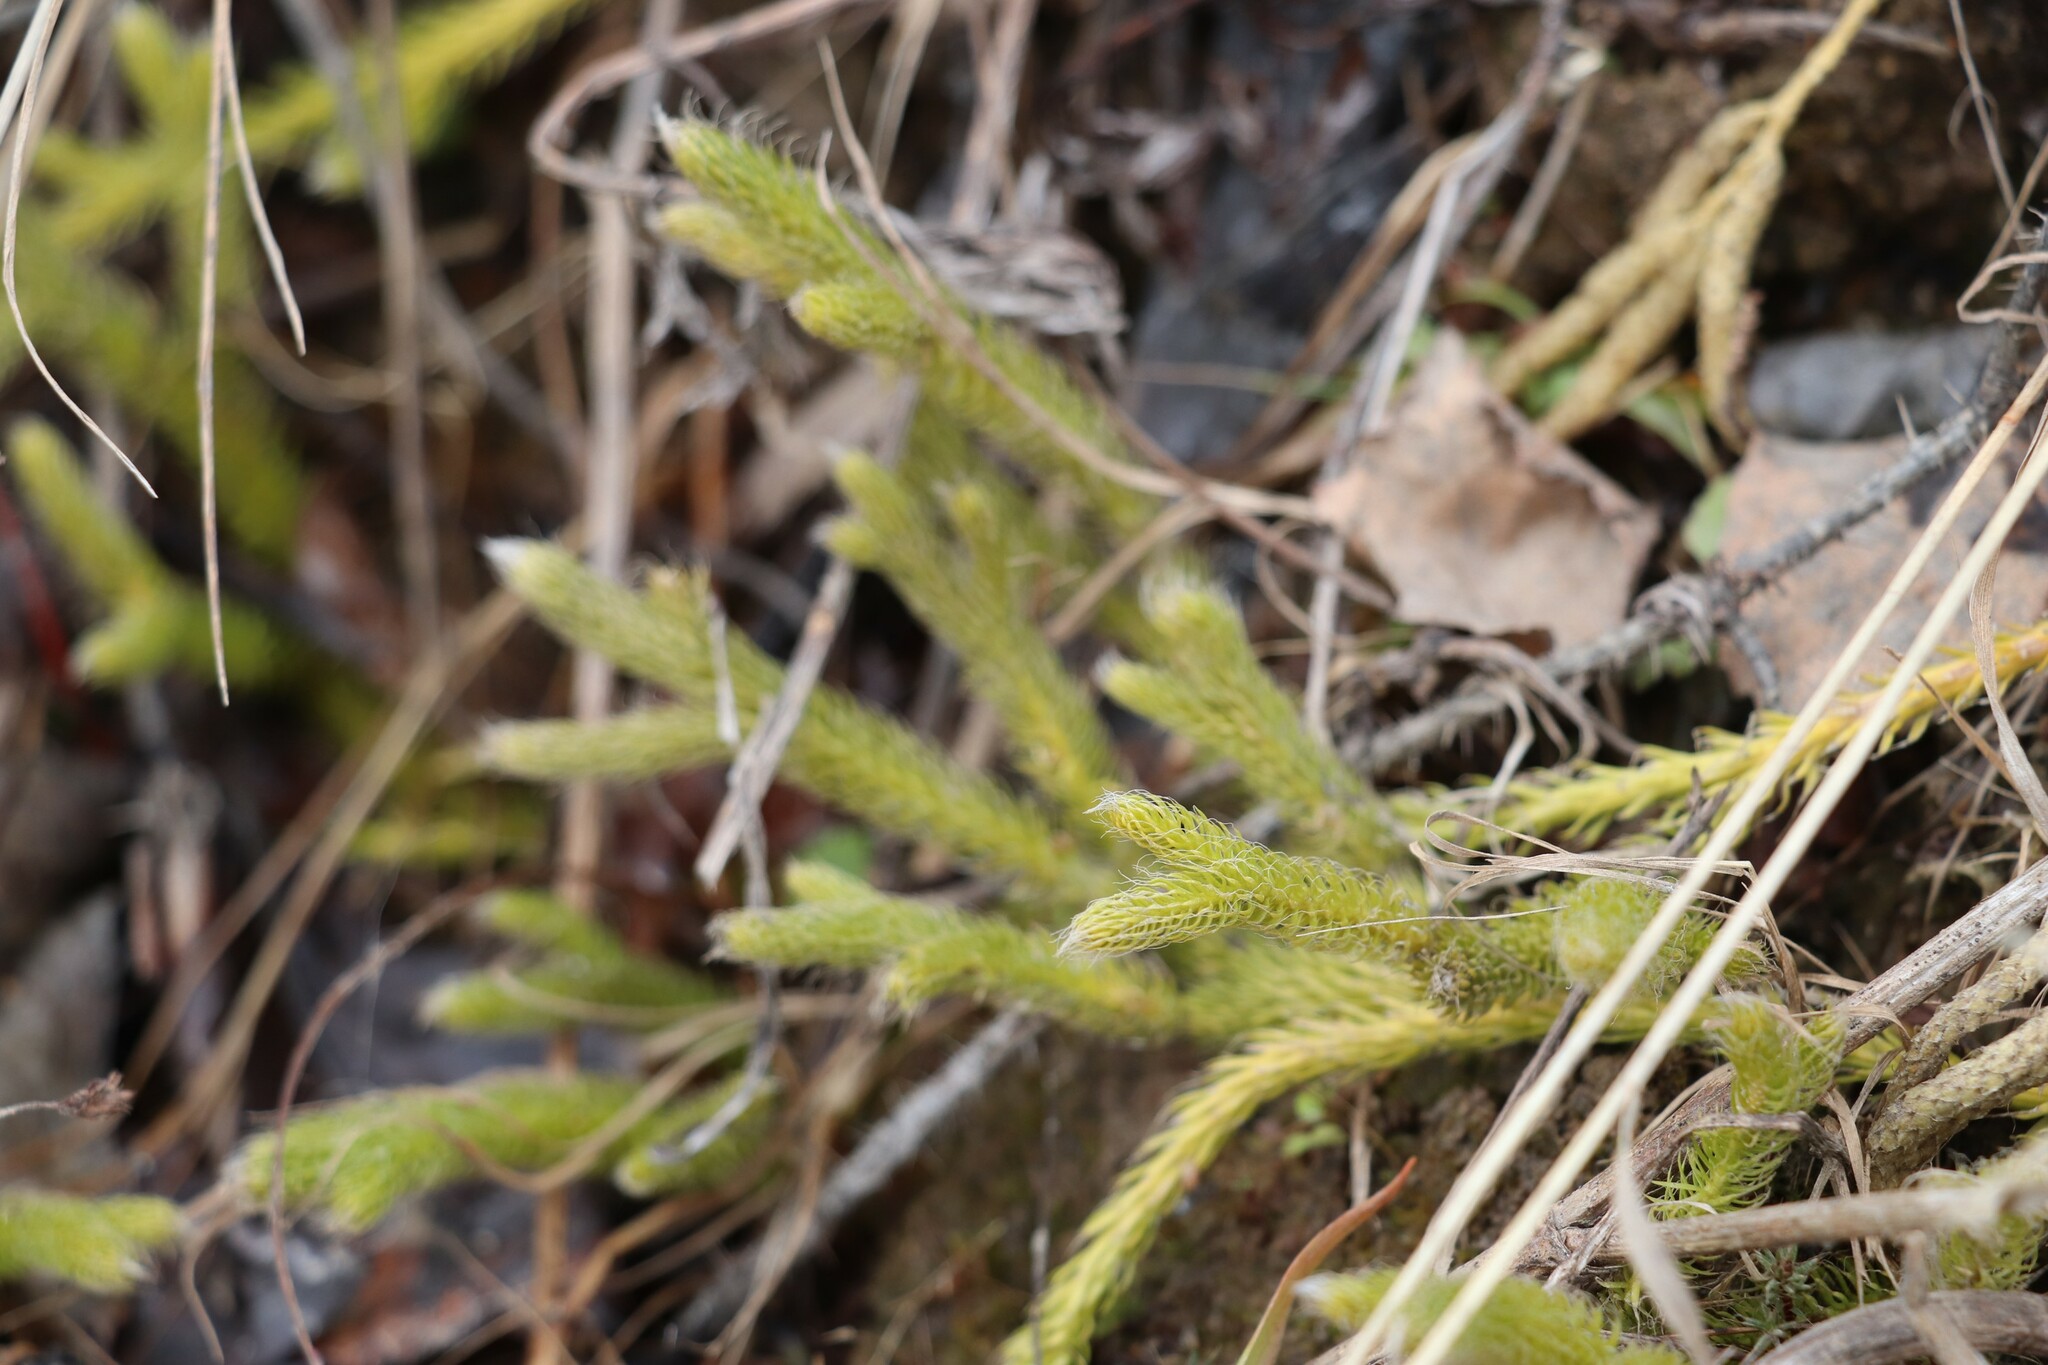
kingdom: Plantae
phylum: Tracheophyta
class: Lycopodiopsida
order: Lycopodiales
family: Lycopodiaceae
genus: Lycopodium
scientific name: Lycopodium clavatum
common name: Stag's-horn clubmoss
